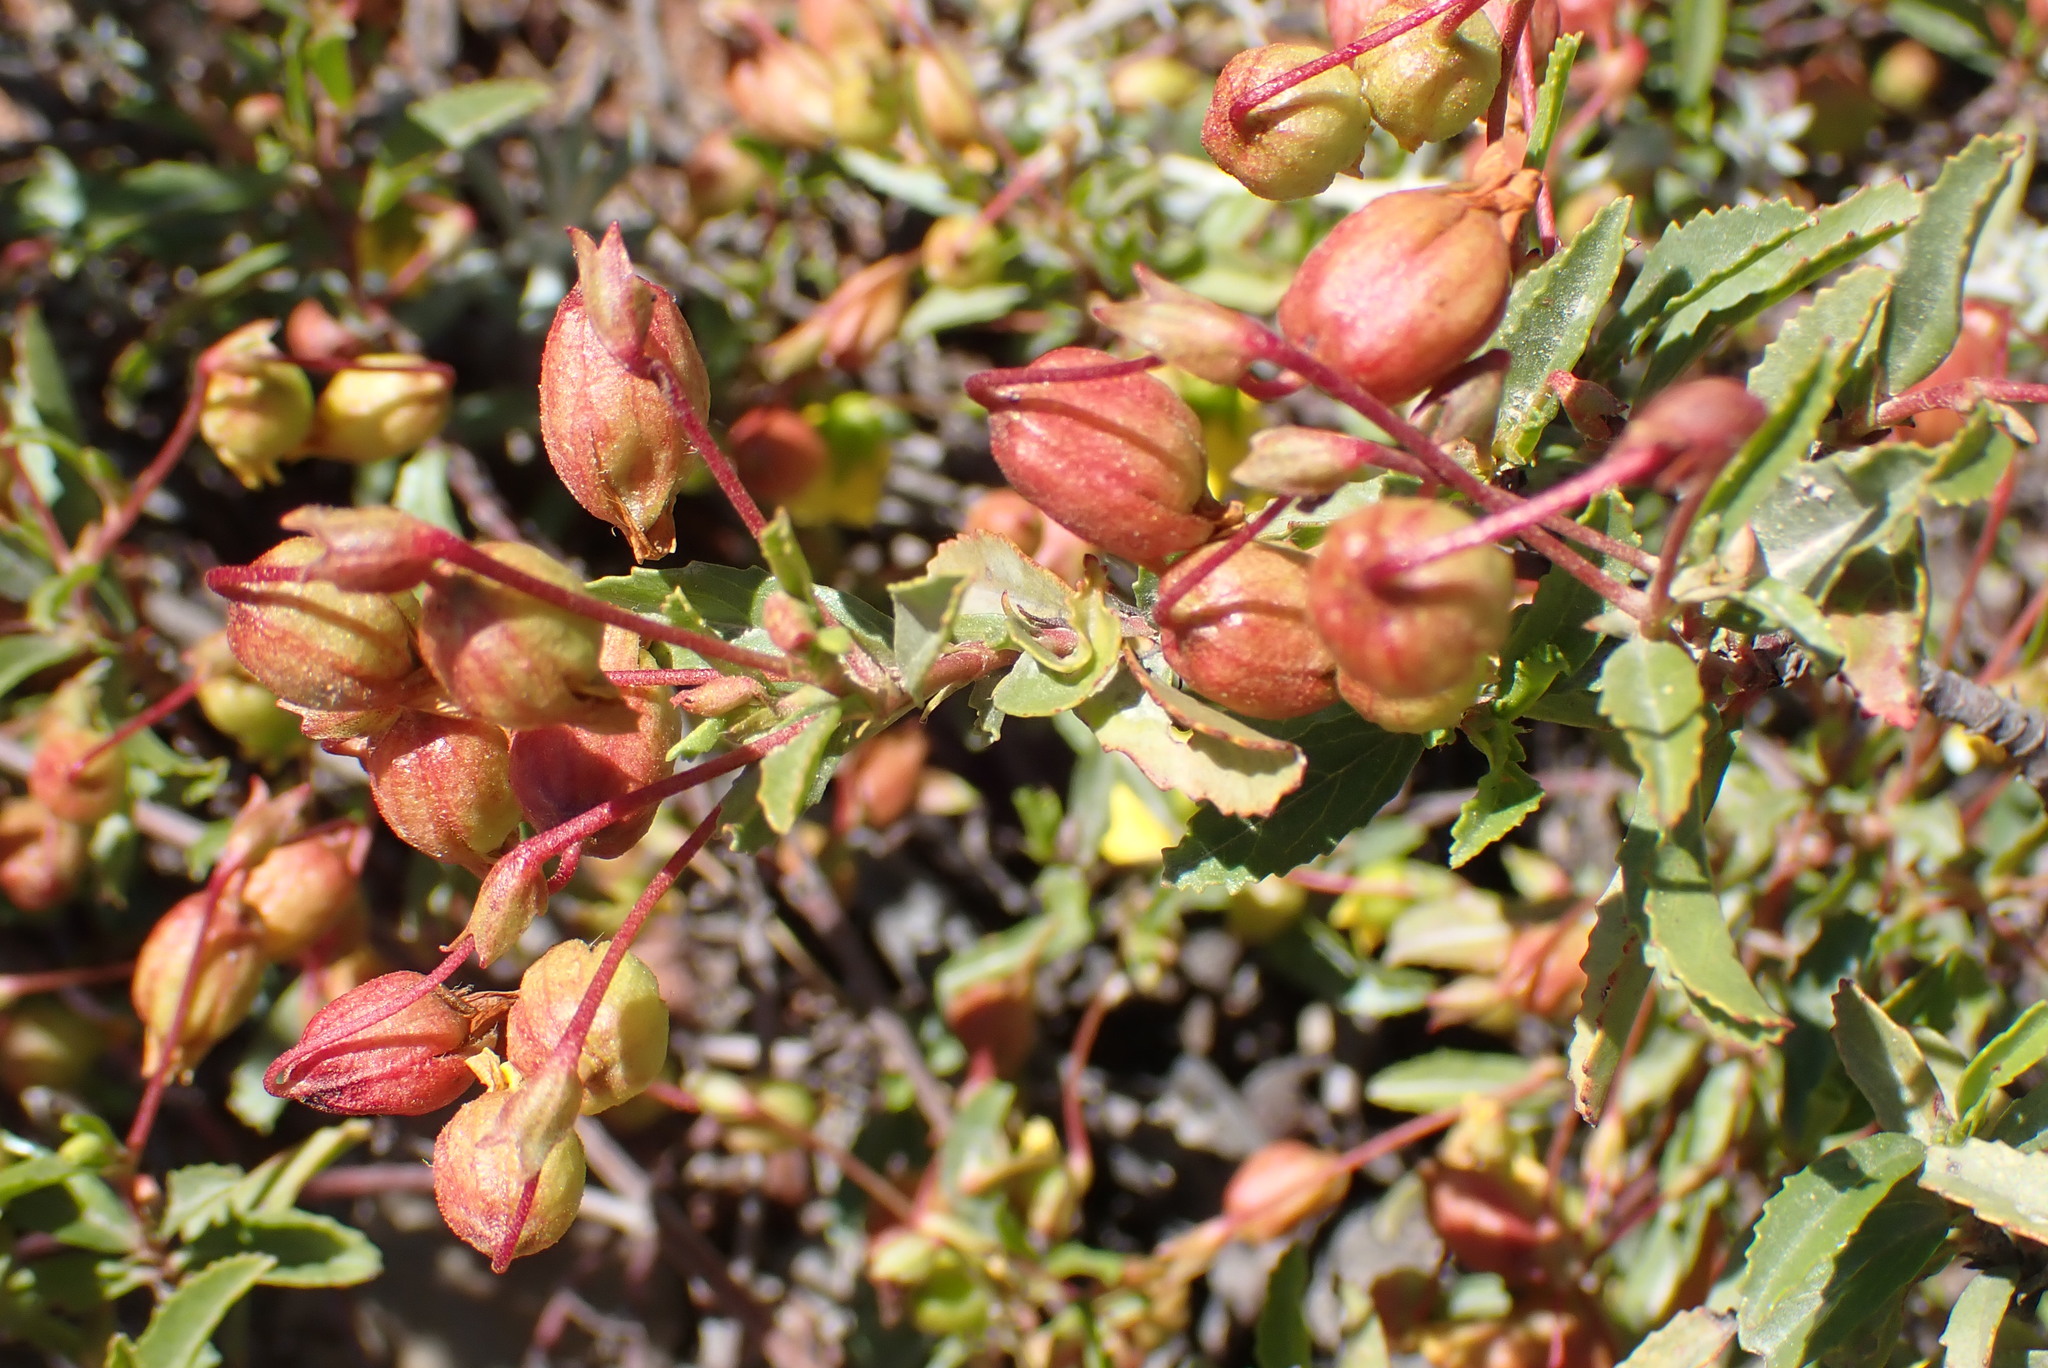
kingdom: Plantae
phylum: Tracheophyta
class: Magnoliopsida
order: Malvales
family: Malvaceae
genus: Hermannia
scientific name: Hermannia saccifera
